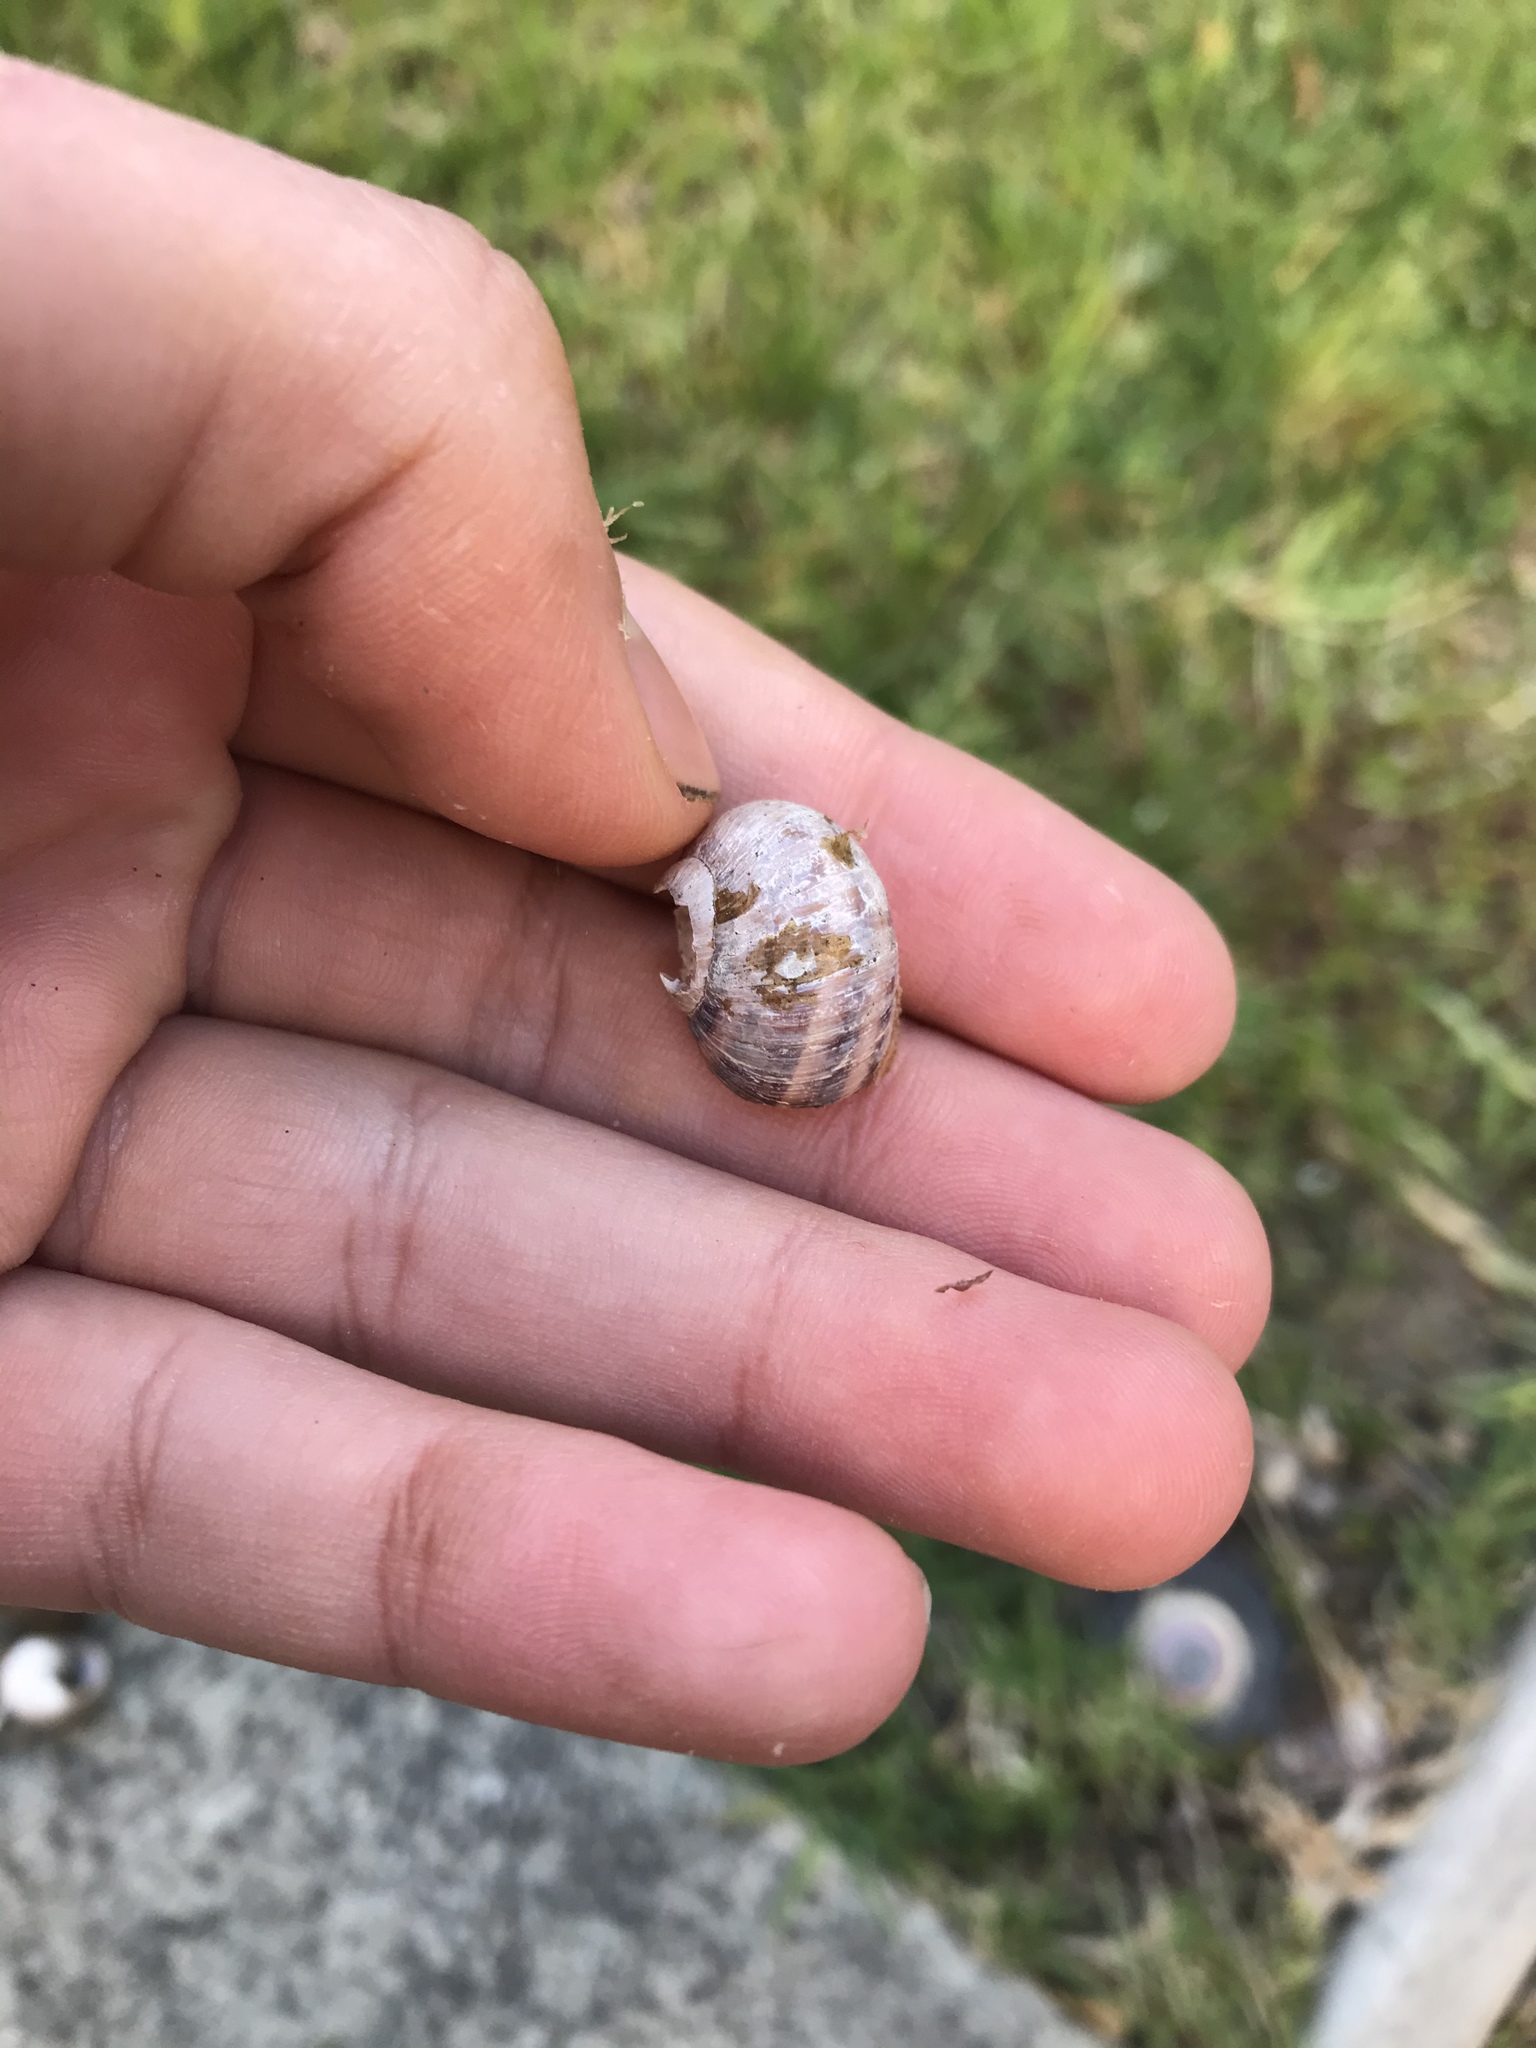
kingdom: Animalia
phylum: Mollusca
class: Gastropoda
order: Stylommatophora
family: Helicidae
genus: Cornu
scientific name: Cornu aspersum
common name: Brown garden snail
